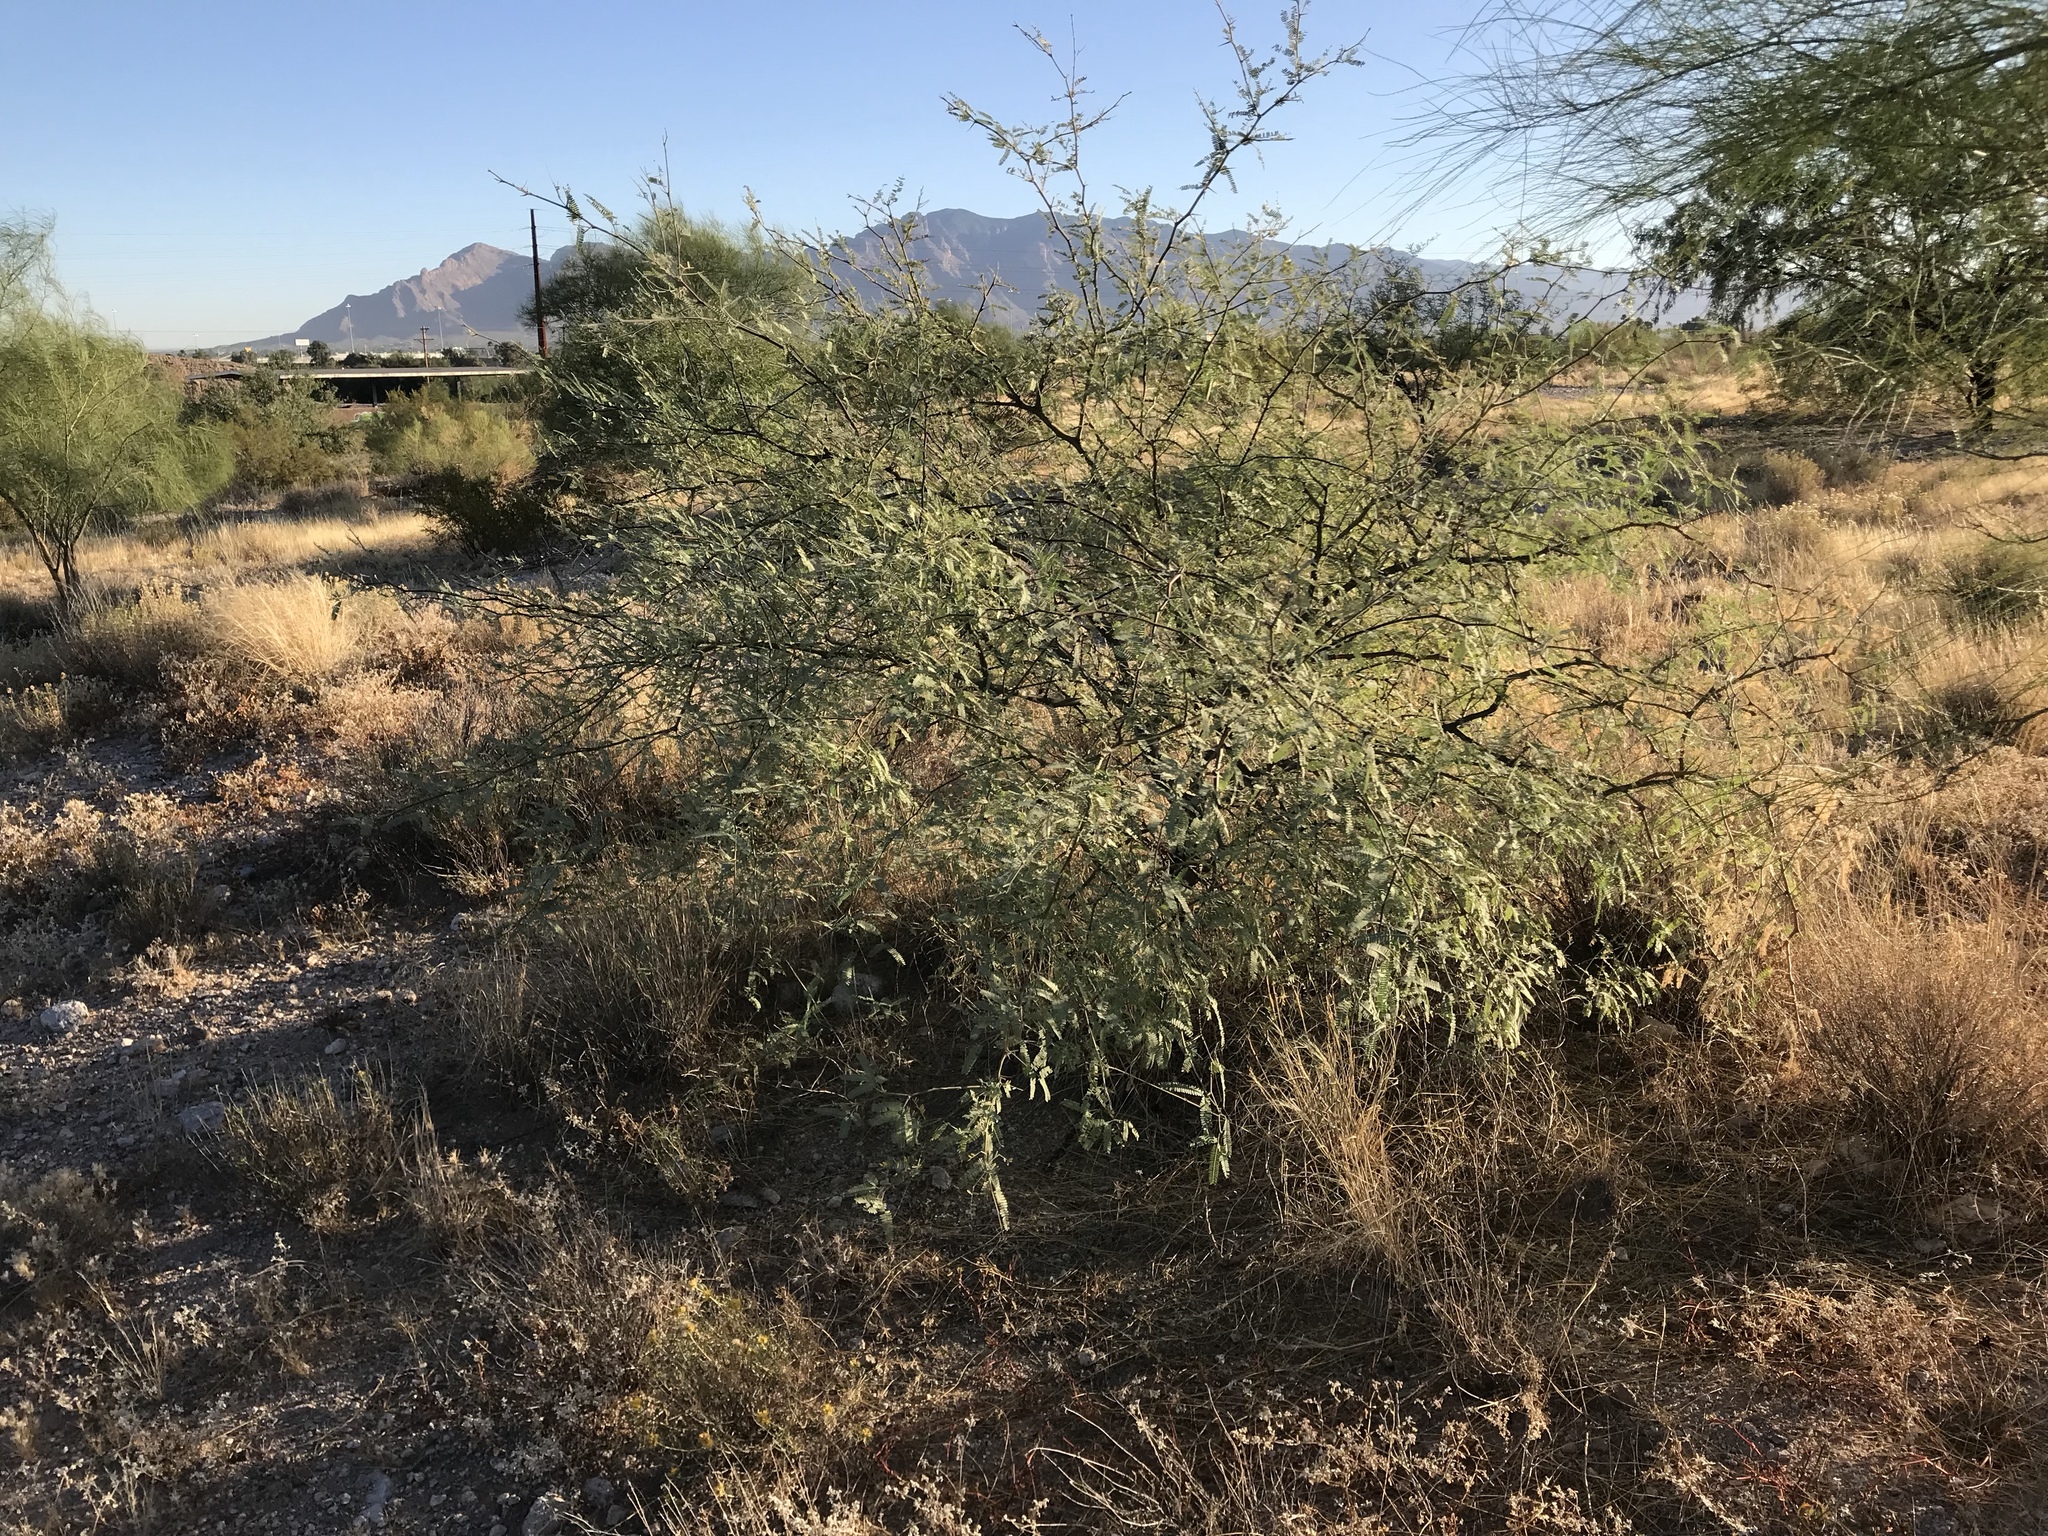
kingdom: Plantae
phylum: Tracheophyta
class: Magnoliopsida
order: Fabales
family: Fabaceae
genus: Prosopis
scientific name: Prosopis velutina
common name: Velvet mesquite
